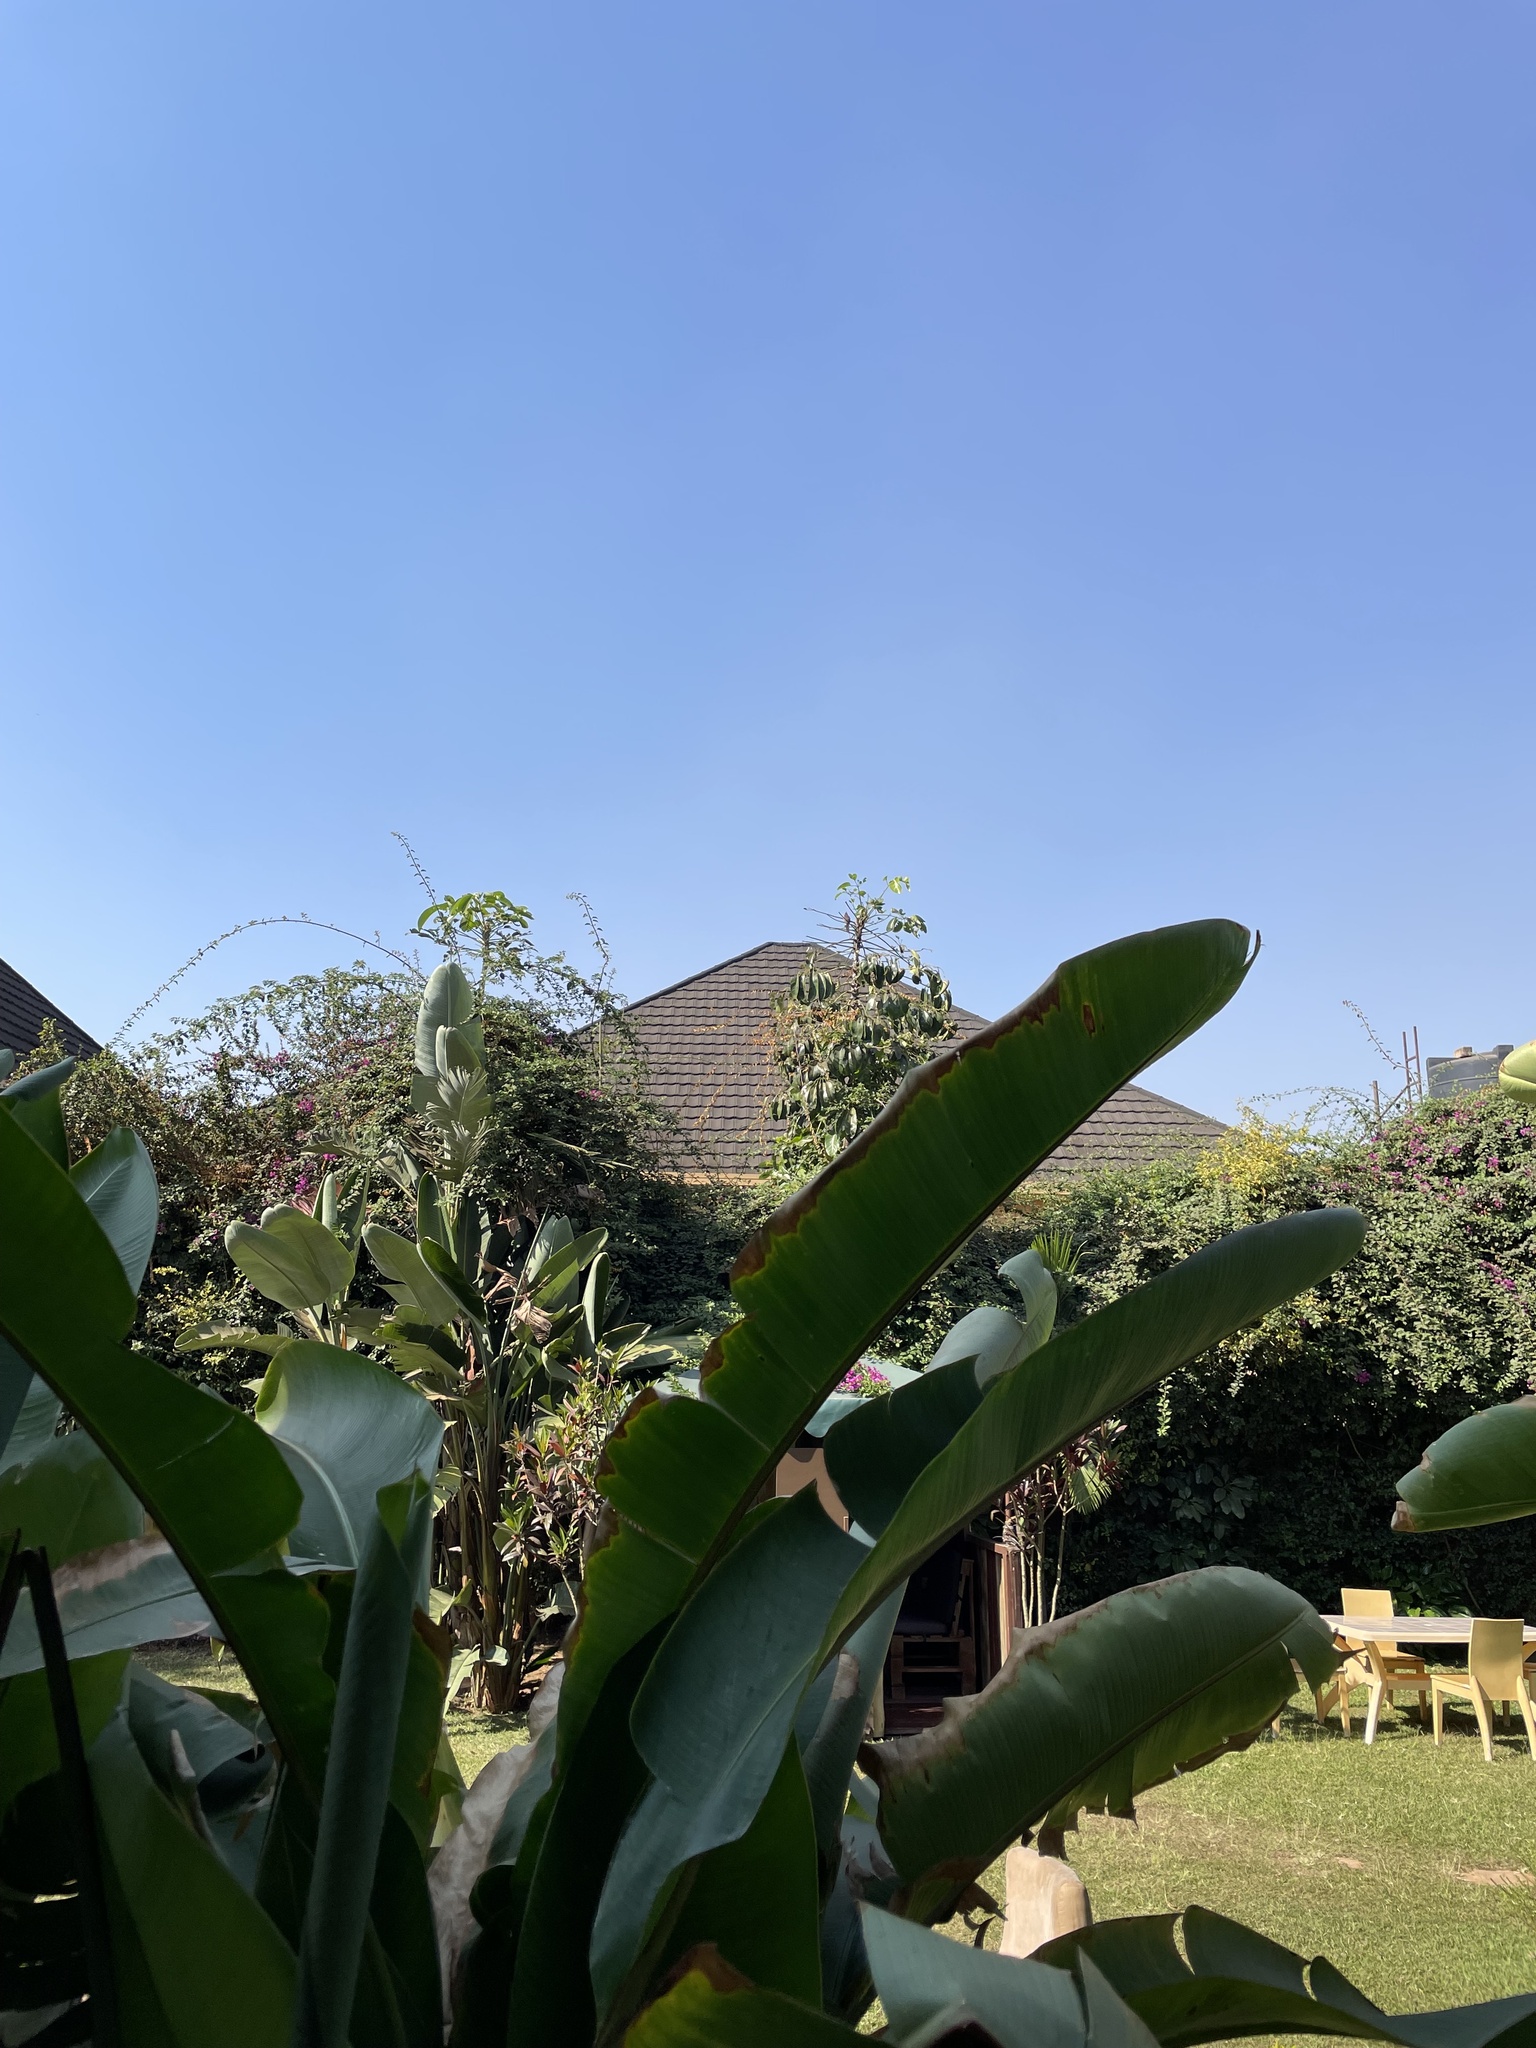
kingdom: Animalia
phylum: Chordata
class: Aves
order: Coliiformes
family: Coliidae
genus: Colius
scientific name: Colius striatus
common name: Speckled mousebird
